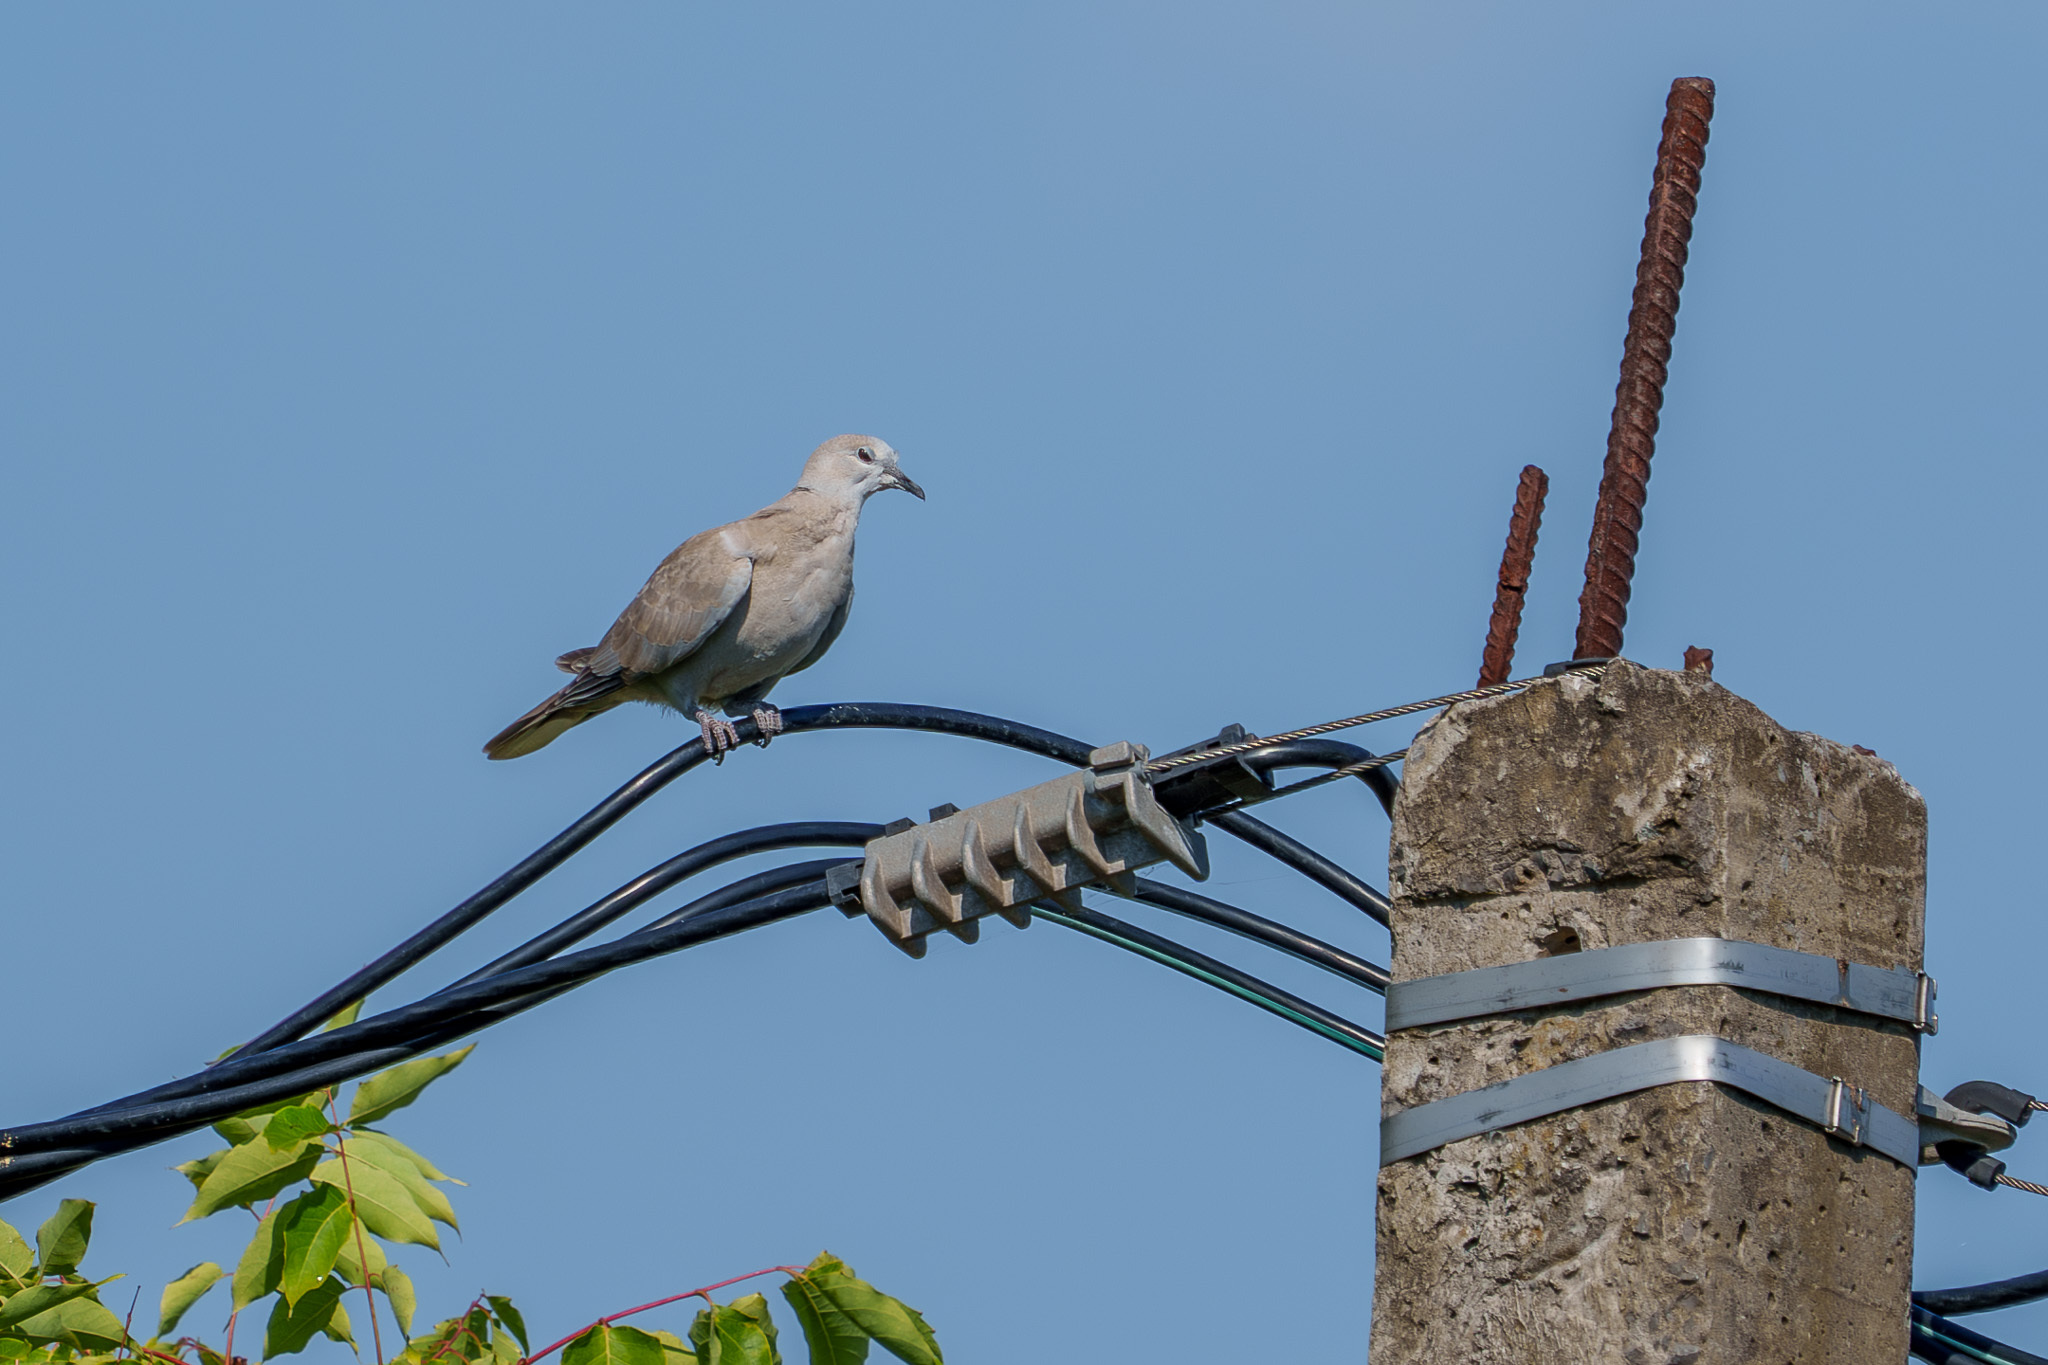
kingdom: Animalia
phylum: Chordata
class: Aves
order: Columbiformes
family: Columbidae
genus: Streptopelia
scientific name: Streptopelia decaocto
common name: Eurasian collared dove
